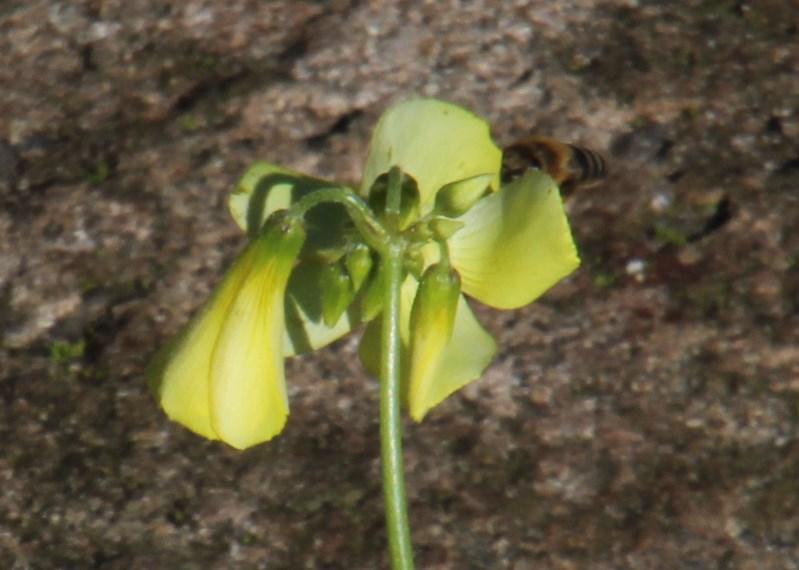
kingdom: Animalia
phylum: Arthropoda
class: Insecta
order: Hymenoptera
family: Apidae
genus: Apis
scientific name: Apis mellifera
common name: Honey bee
